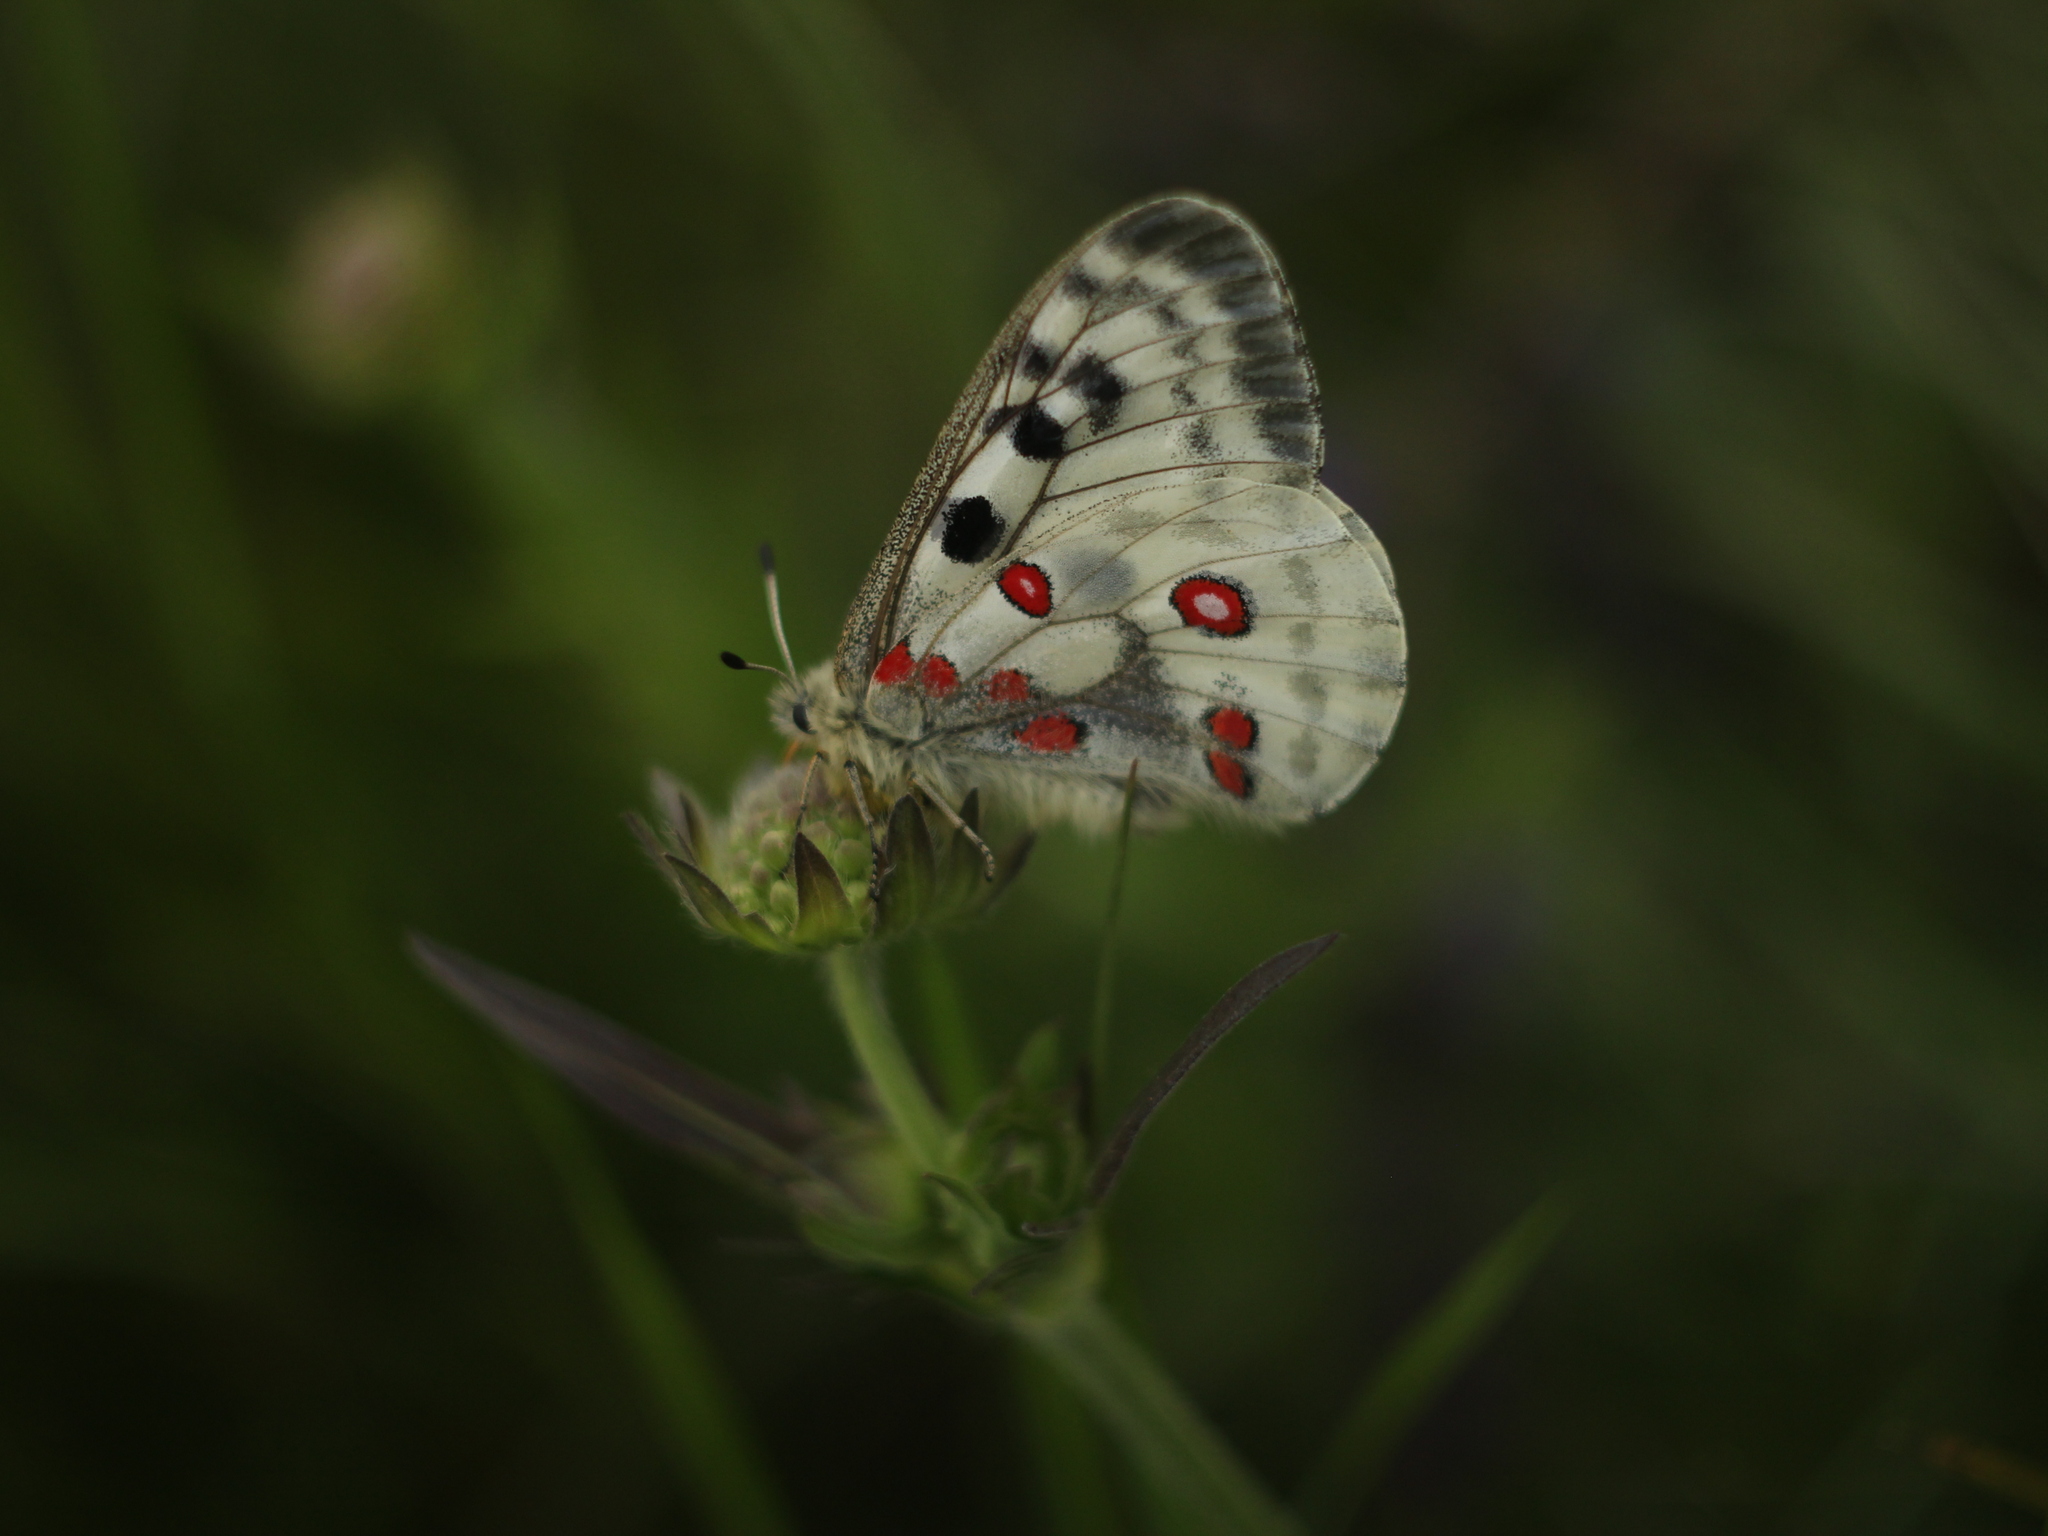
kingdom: Animalia
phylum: Arthropoda
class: Insecta
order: Lepidoptera
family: Papilionidae
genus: Parnassius
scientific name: Parnassius apollo
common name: Apollo
